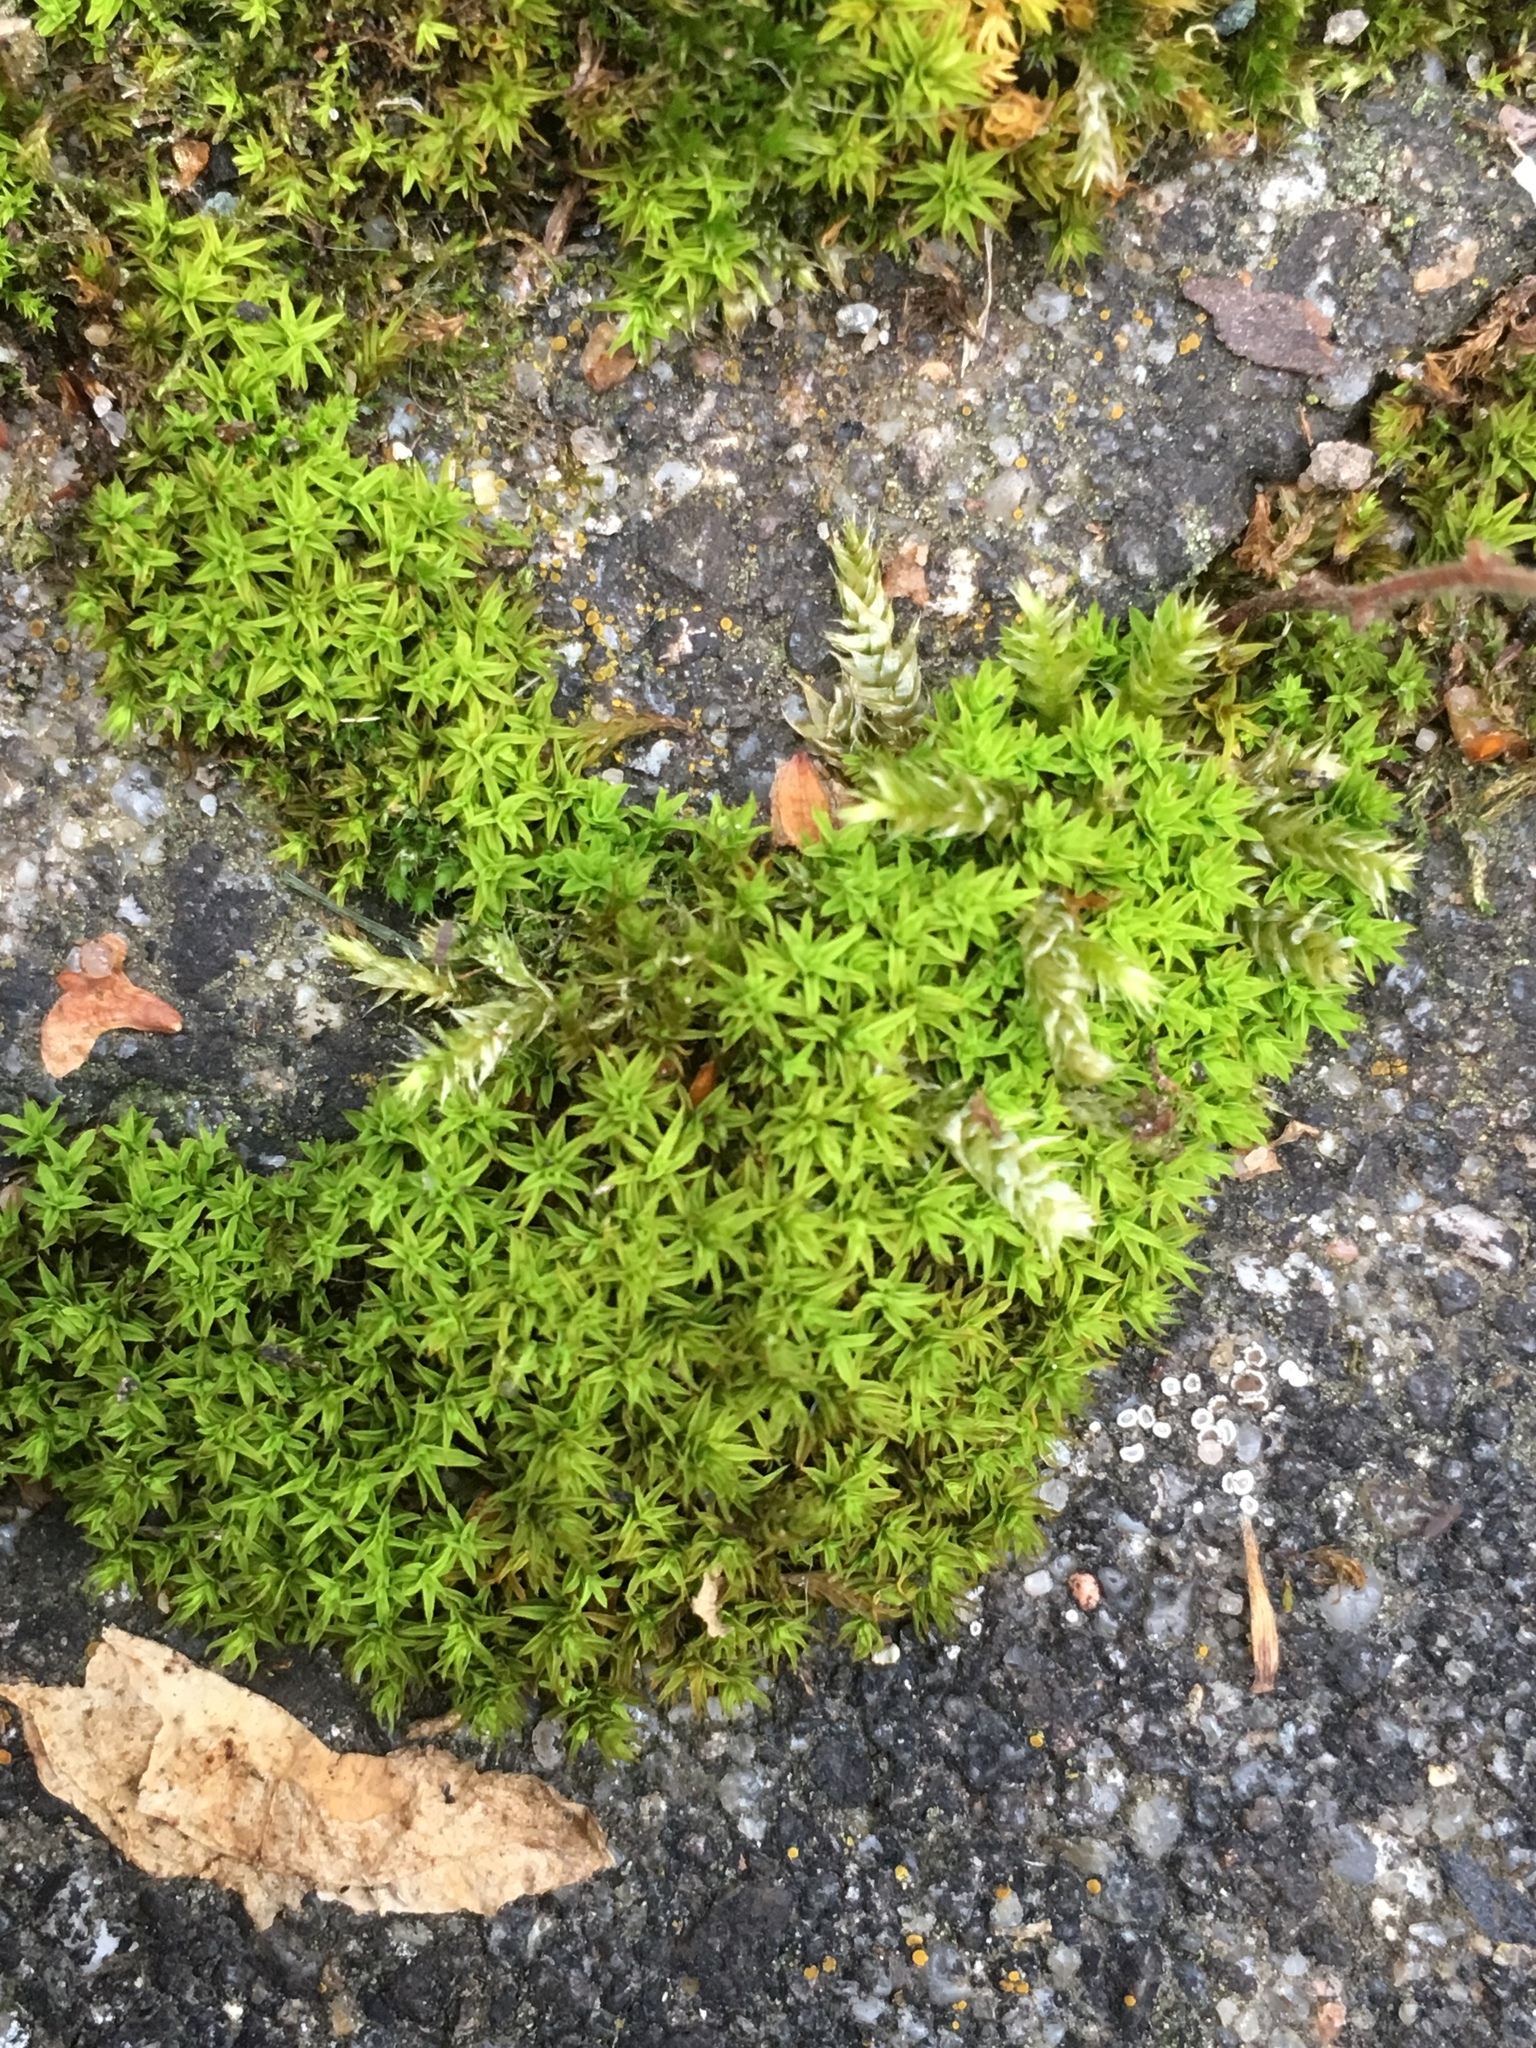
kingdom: Plantae
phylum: Bryophyta
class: Bryopsida
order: Pottiales
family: Pottiaceae
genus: Barbula
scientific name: Barbula unguiculata
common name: Prickly beard moss
